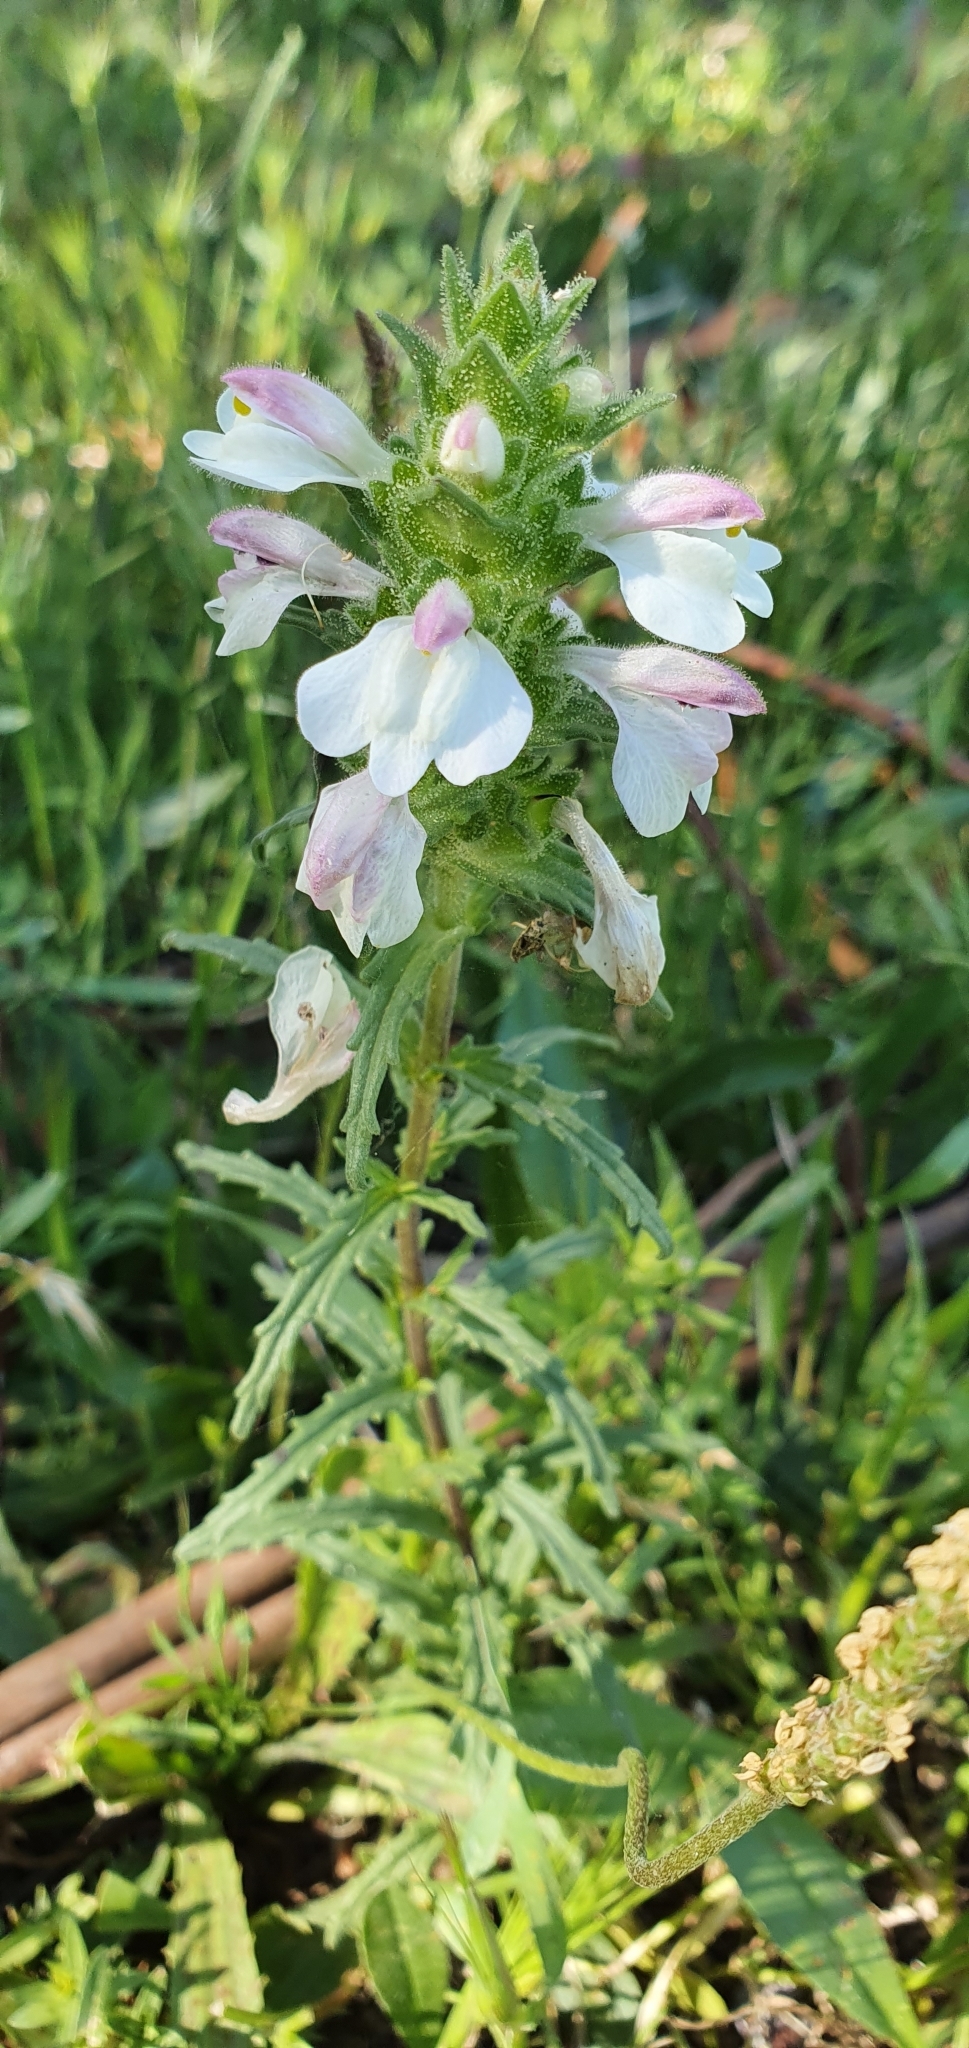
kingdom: Plantae
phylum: Tracheophyta
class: Magnoliopsida
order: Lamiales
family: Orobanchaceae
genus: Bellardia
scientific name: Bellardia trixago
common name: Mediterranean lineseed
